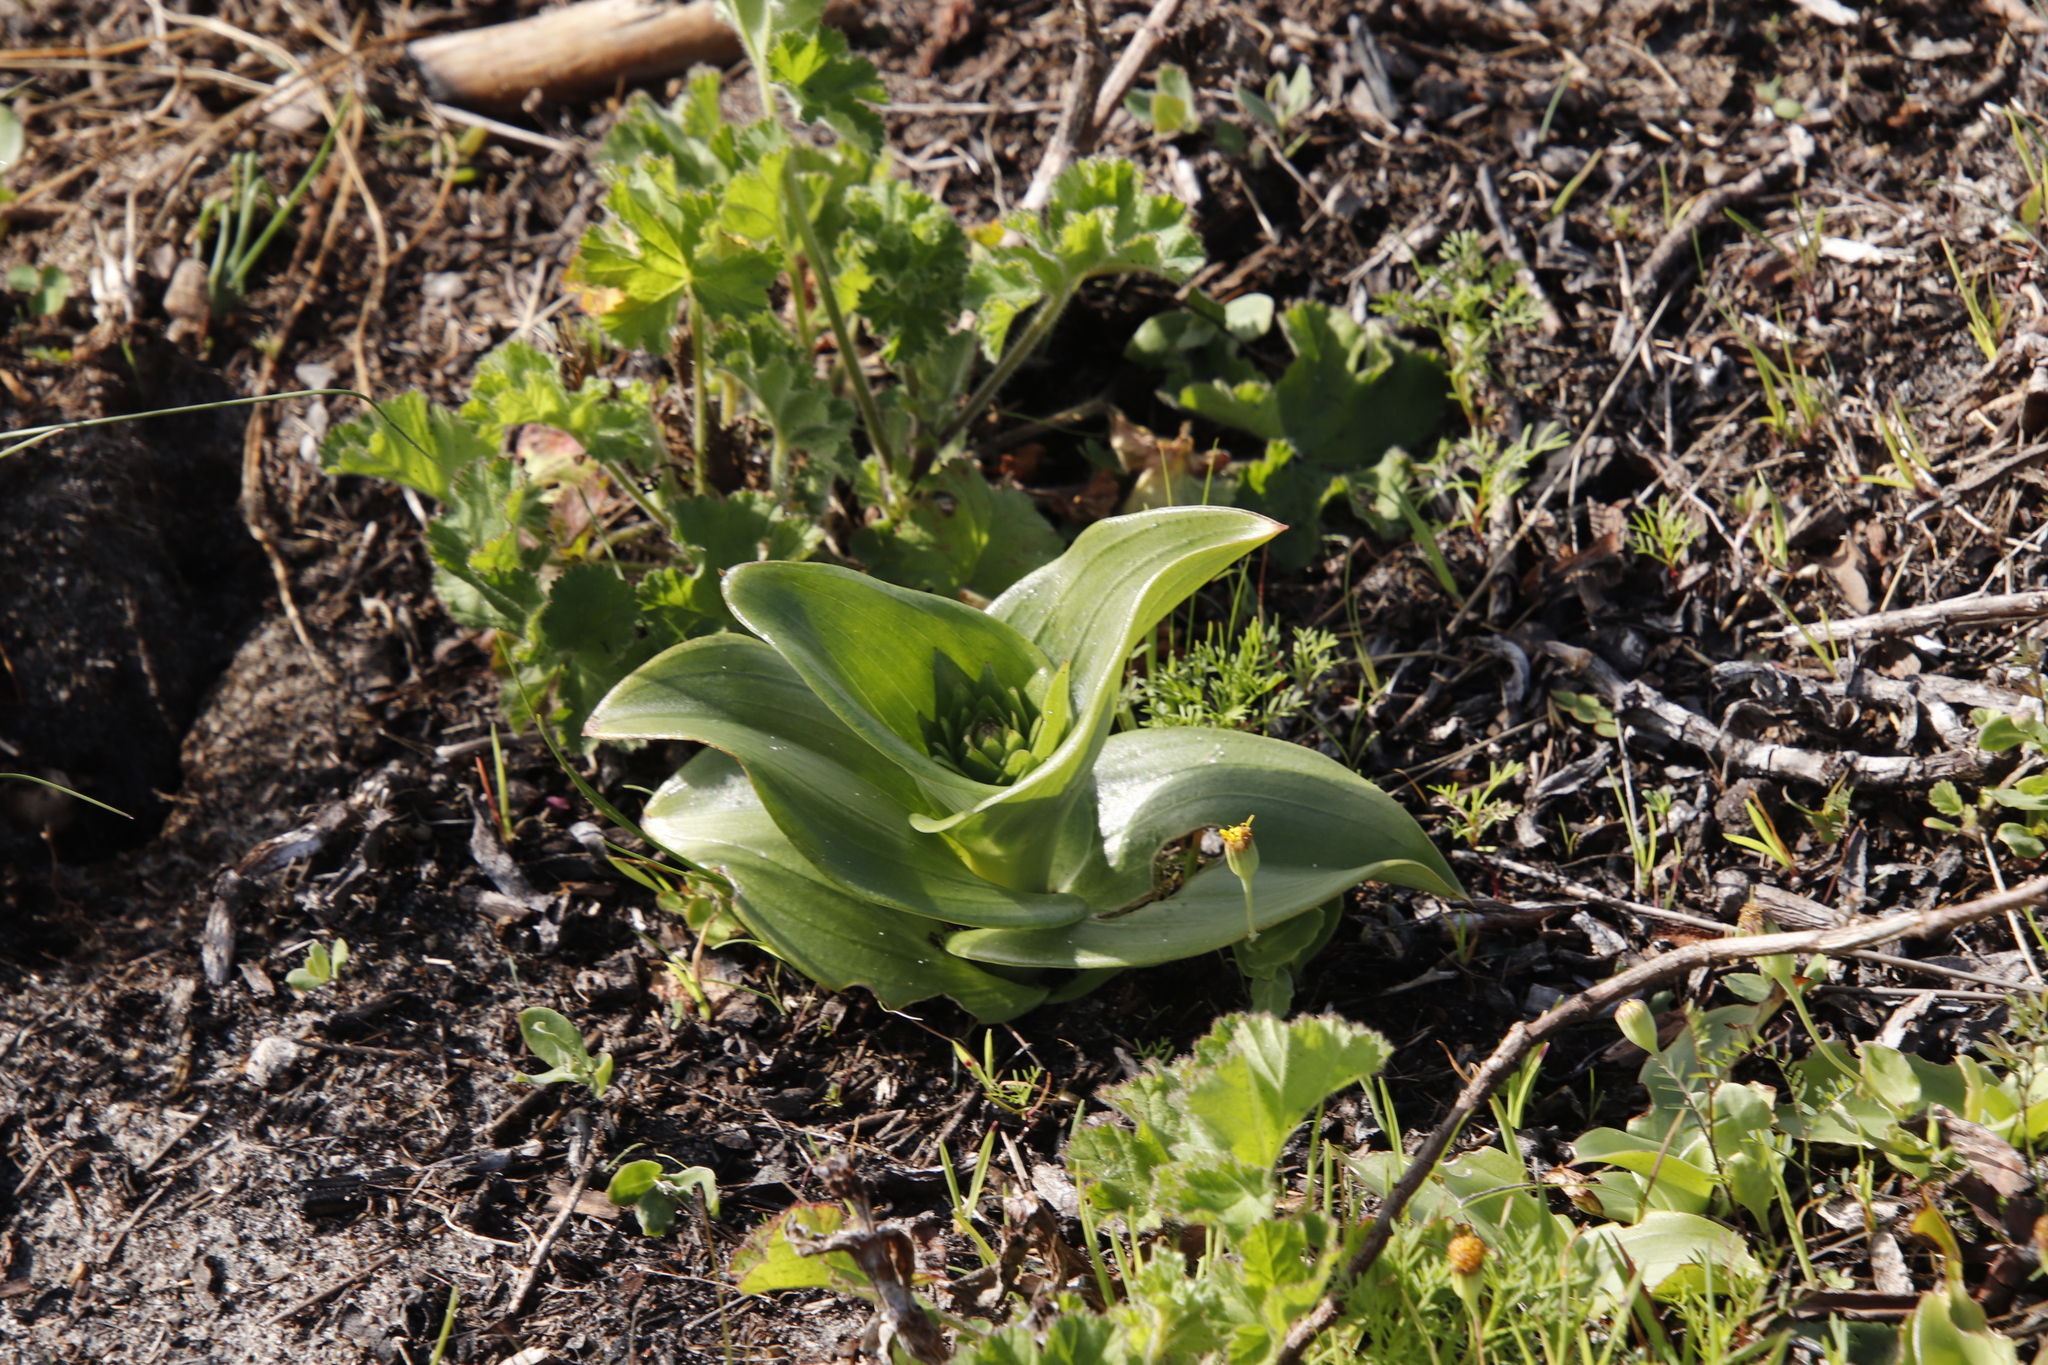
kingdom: Plantae
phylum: Tracheophyta
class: Liliopsida
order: Asparagales
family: Orchidaceae
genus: Satyrium
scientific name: Satyrium odorum
